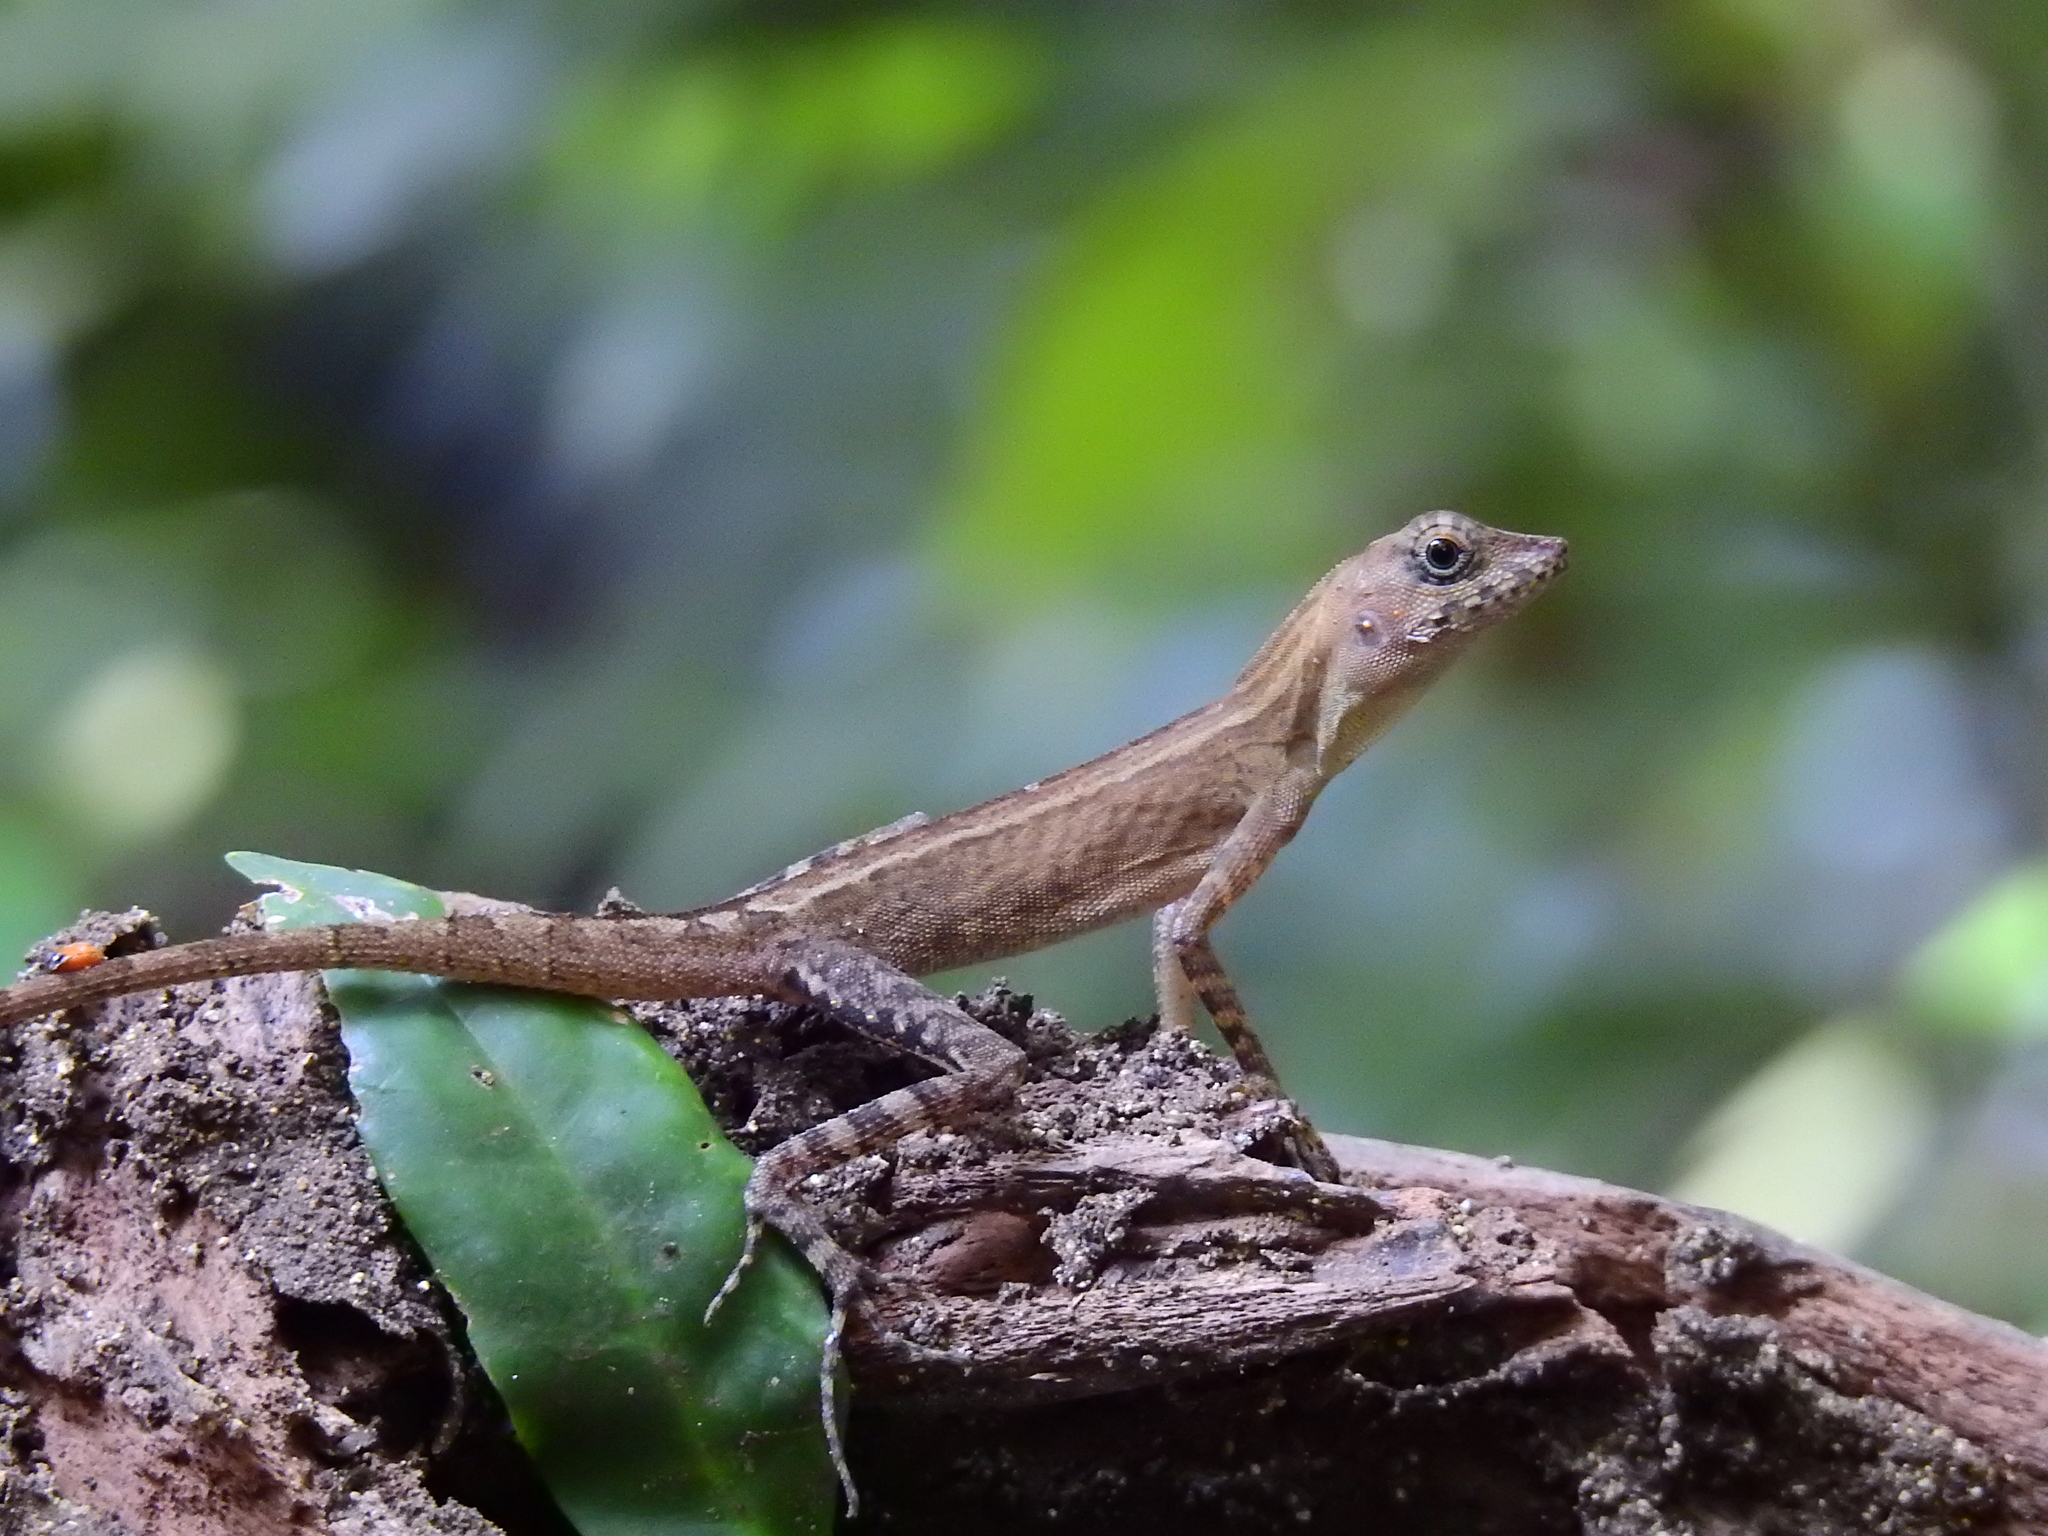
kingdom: Animalia
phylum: Chordata
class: Squamata
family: Agamidae
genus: Coryphophylax
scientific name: Coryphophylax subcristatus
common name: Short-crested bay island forest lizard
